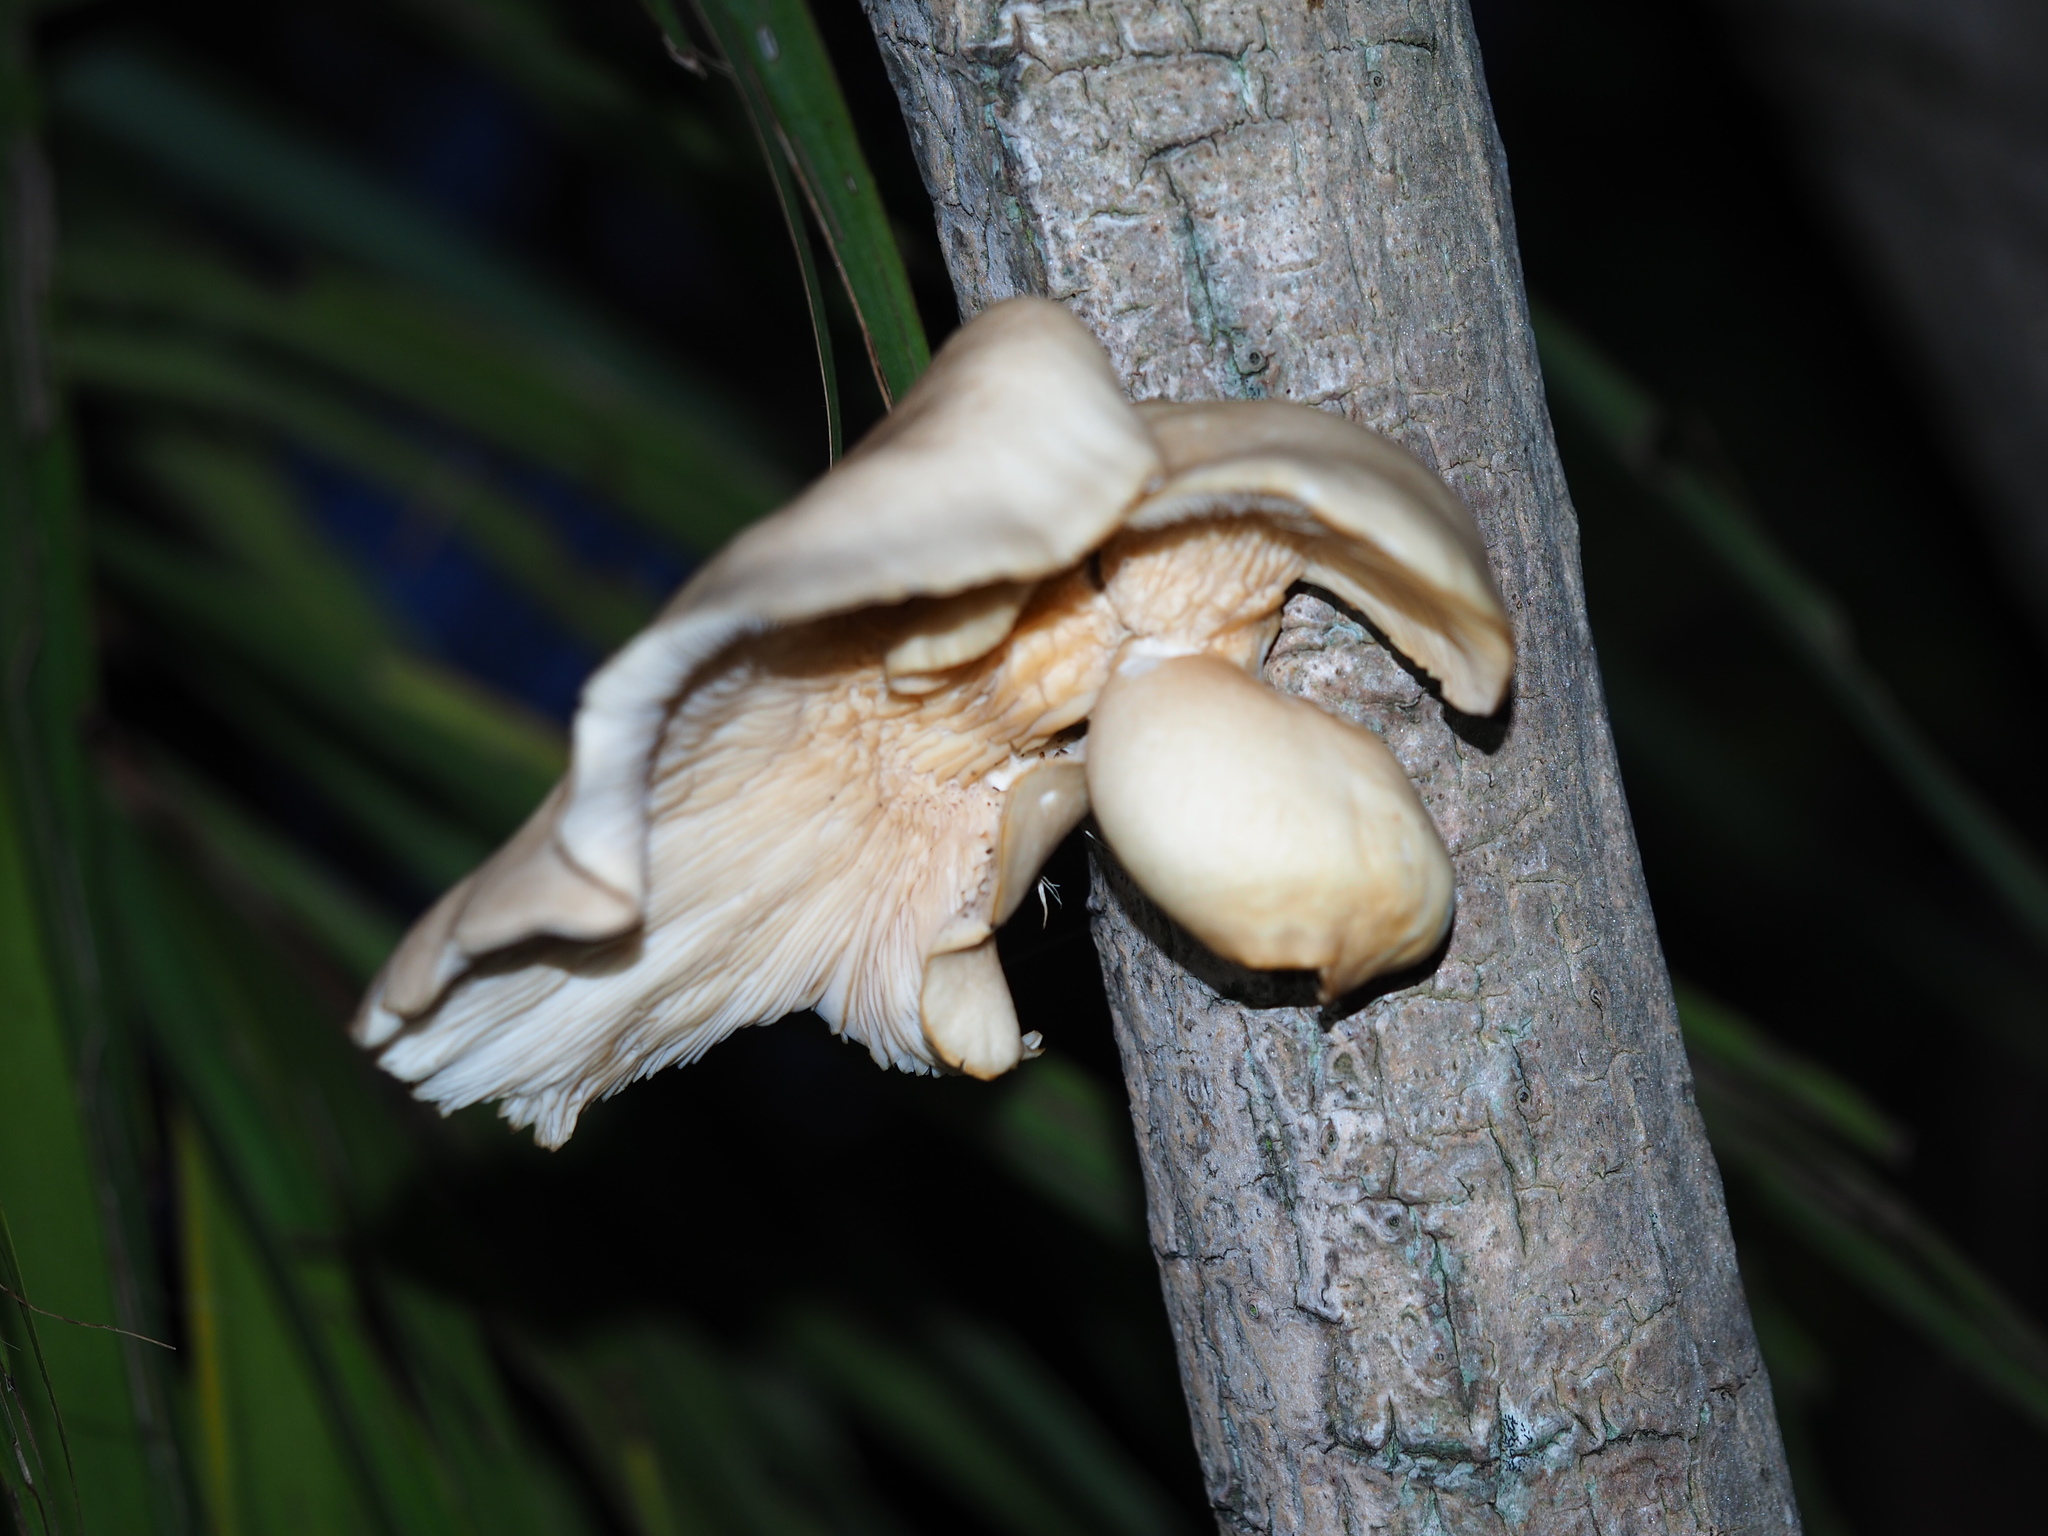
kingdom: Fungi
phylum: Basidiomycota
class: Agaricomycetes
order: Agaricales
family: Pleurotaceae
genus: Pleurotus
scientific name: Pleurotus pulmonarius
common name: Pale oyster
